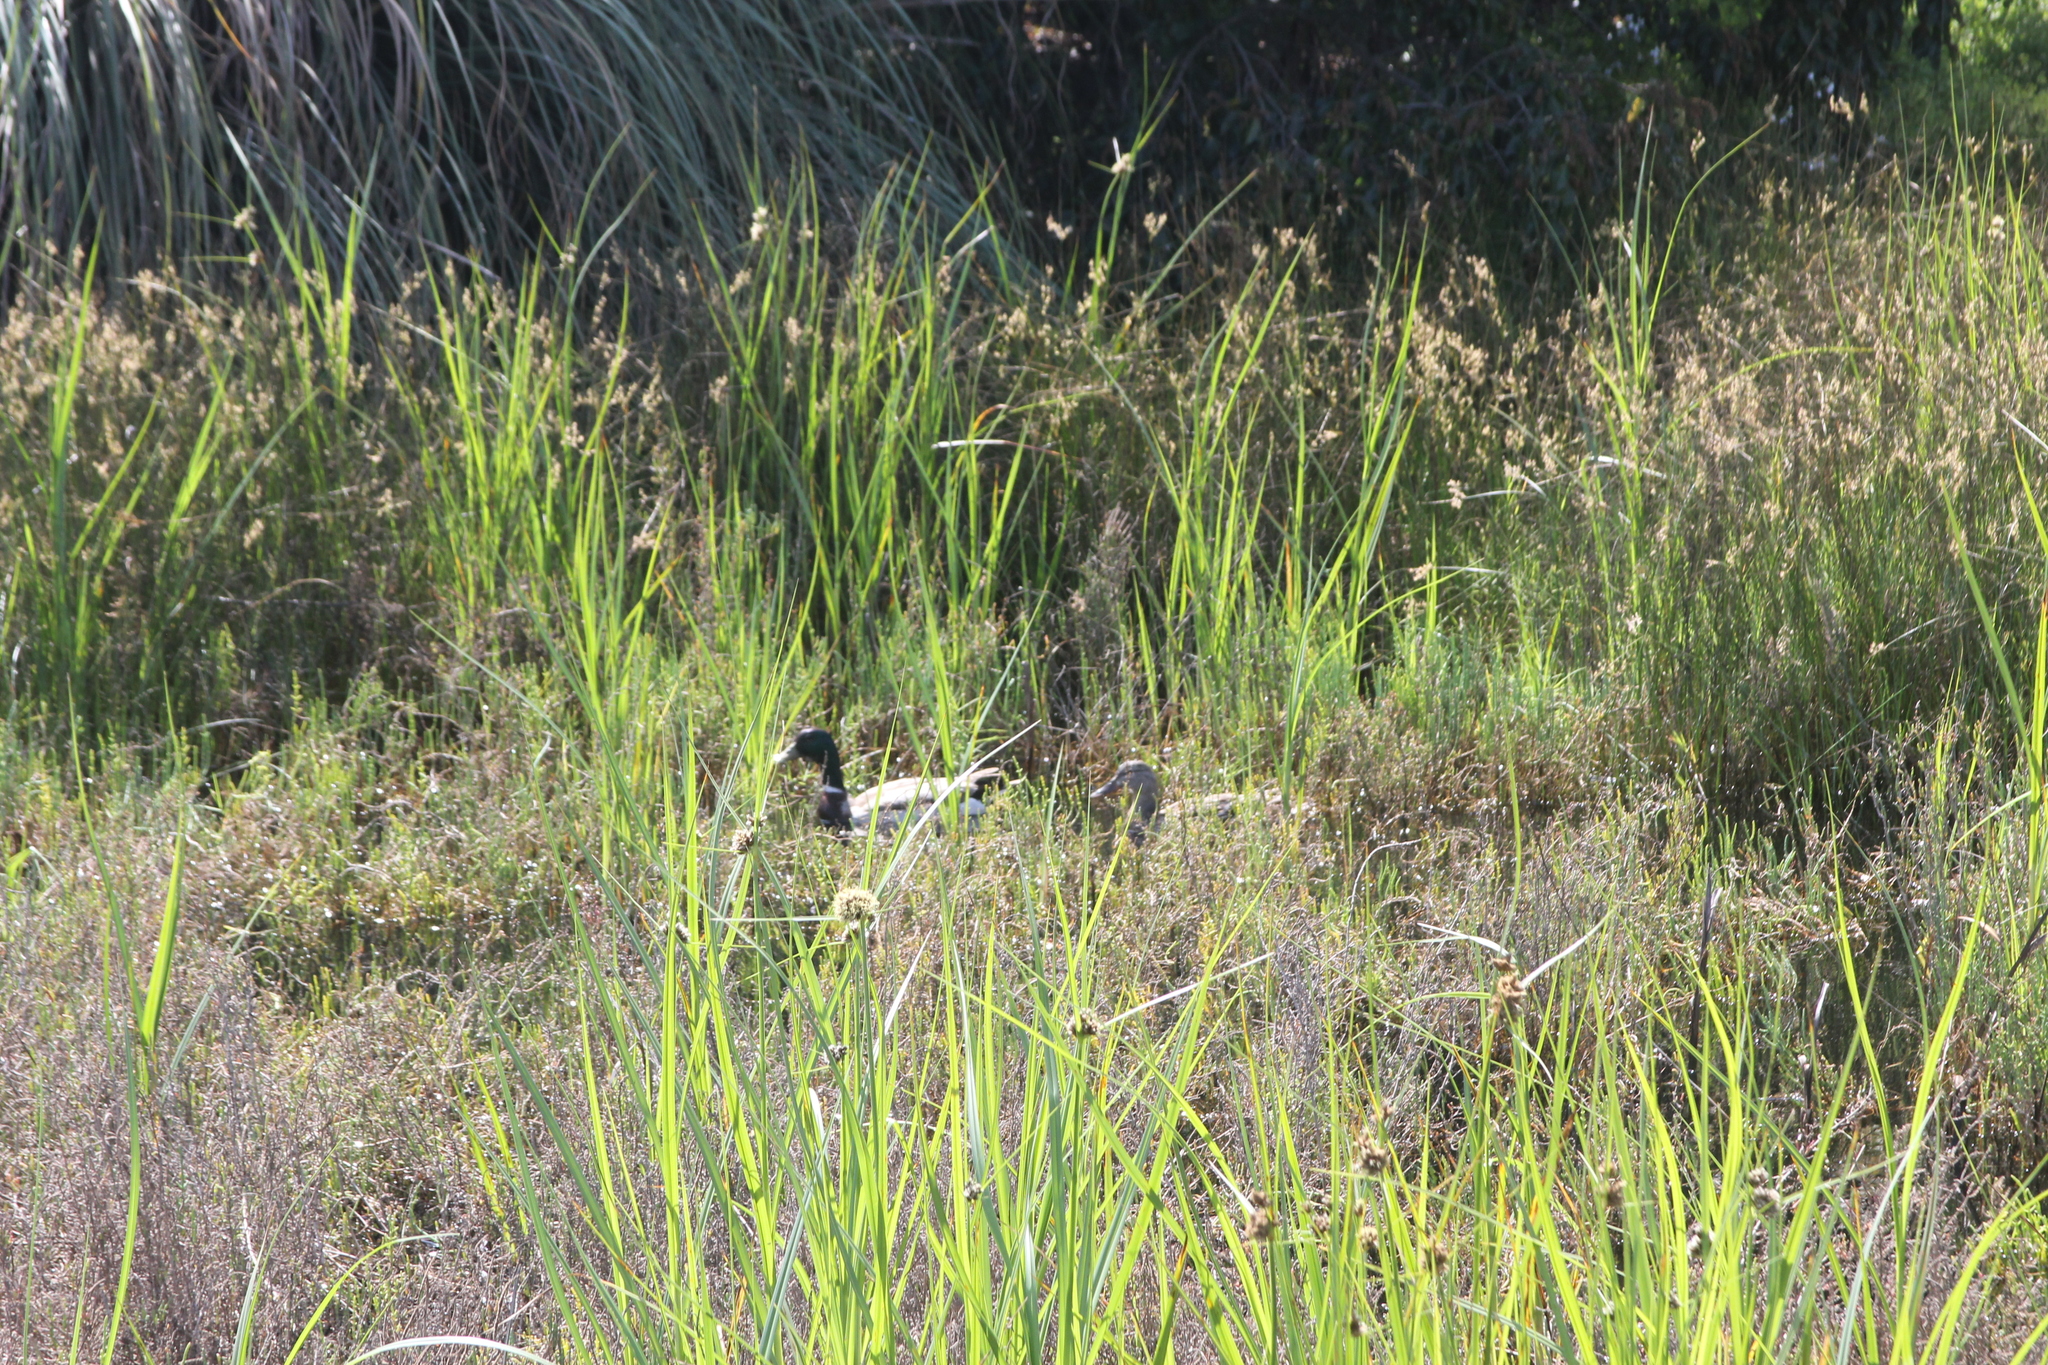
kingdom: Animalia
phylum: Chordata
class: Aves
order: Anseriformes
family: Anatidae
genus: Anas
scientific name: Anas platyrhynchos
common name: Mallard
